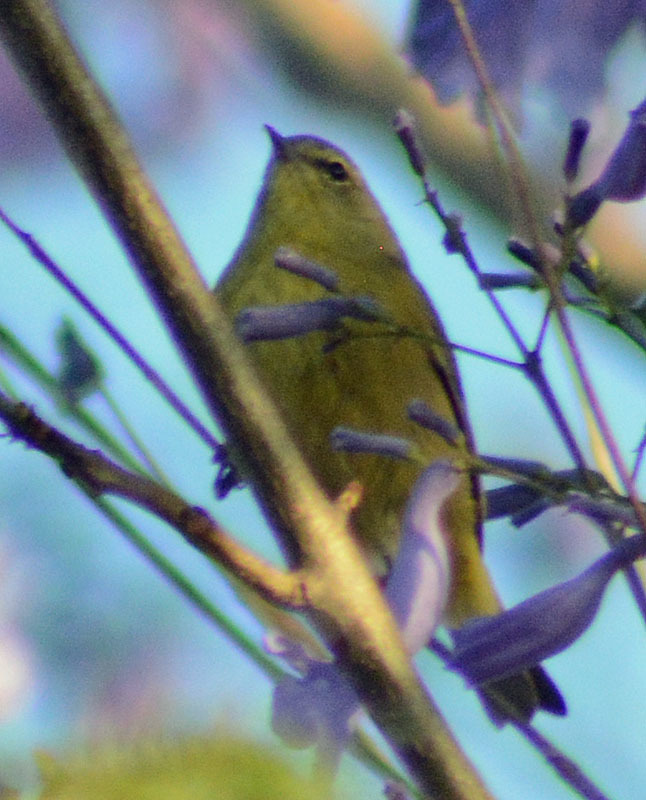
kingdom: Animalia
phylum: Chordata
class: Aves
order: Passeriformes
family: Parulidae
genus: Leiothlypis
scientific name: Leiothlypis celata
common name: Orange-crowned warbler
